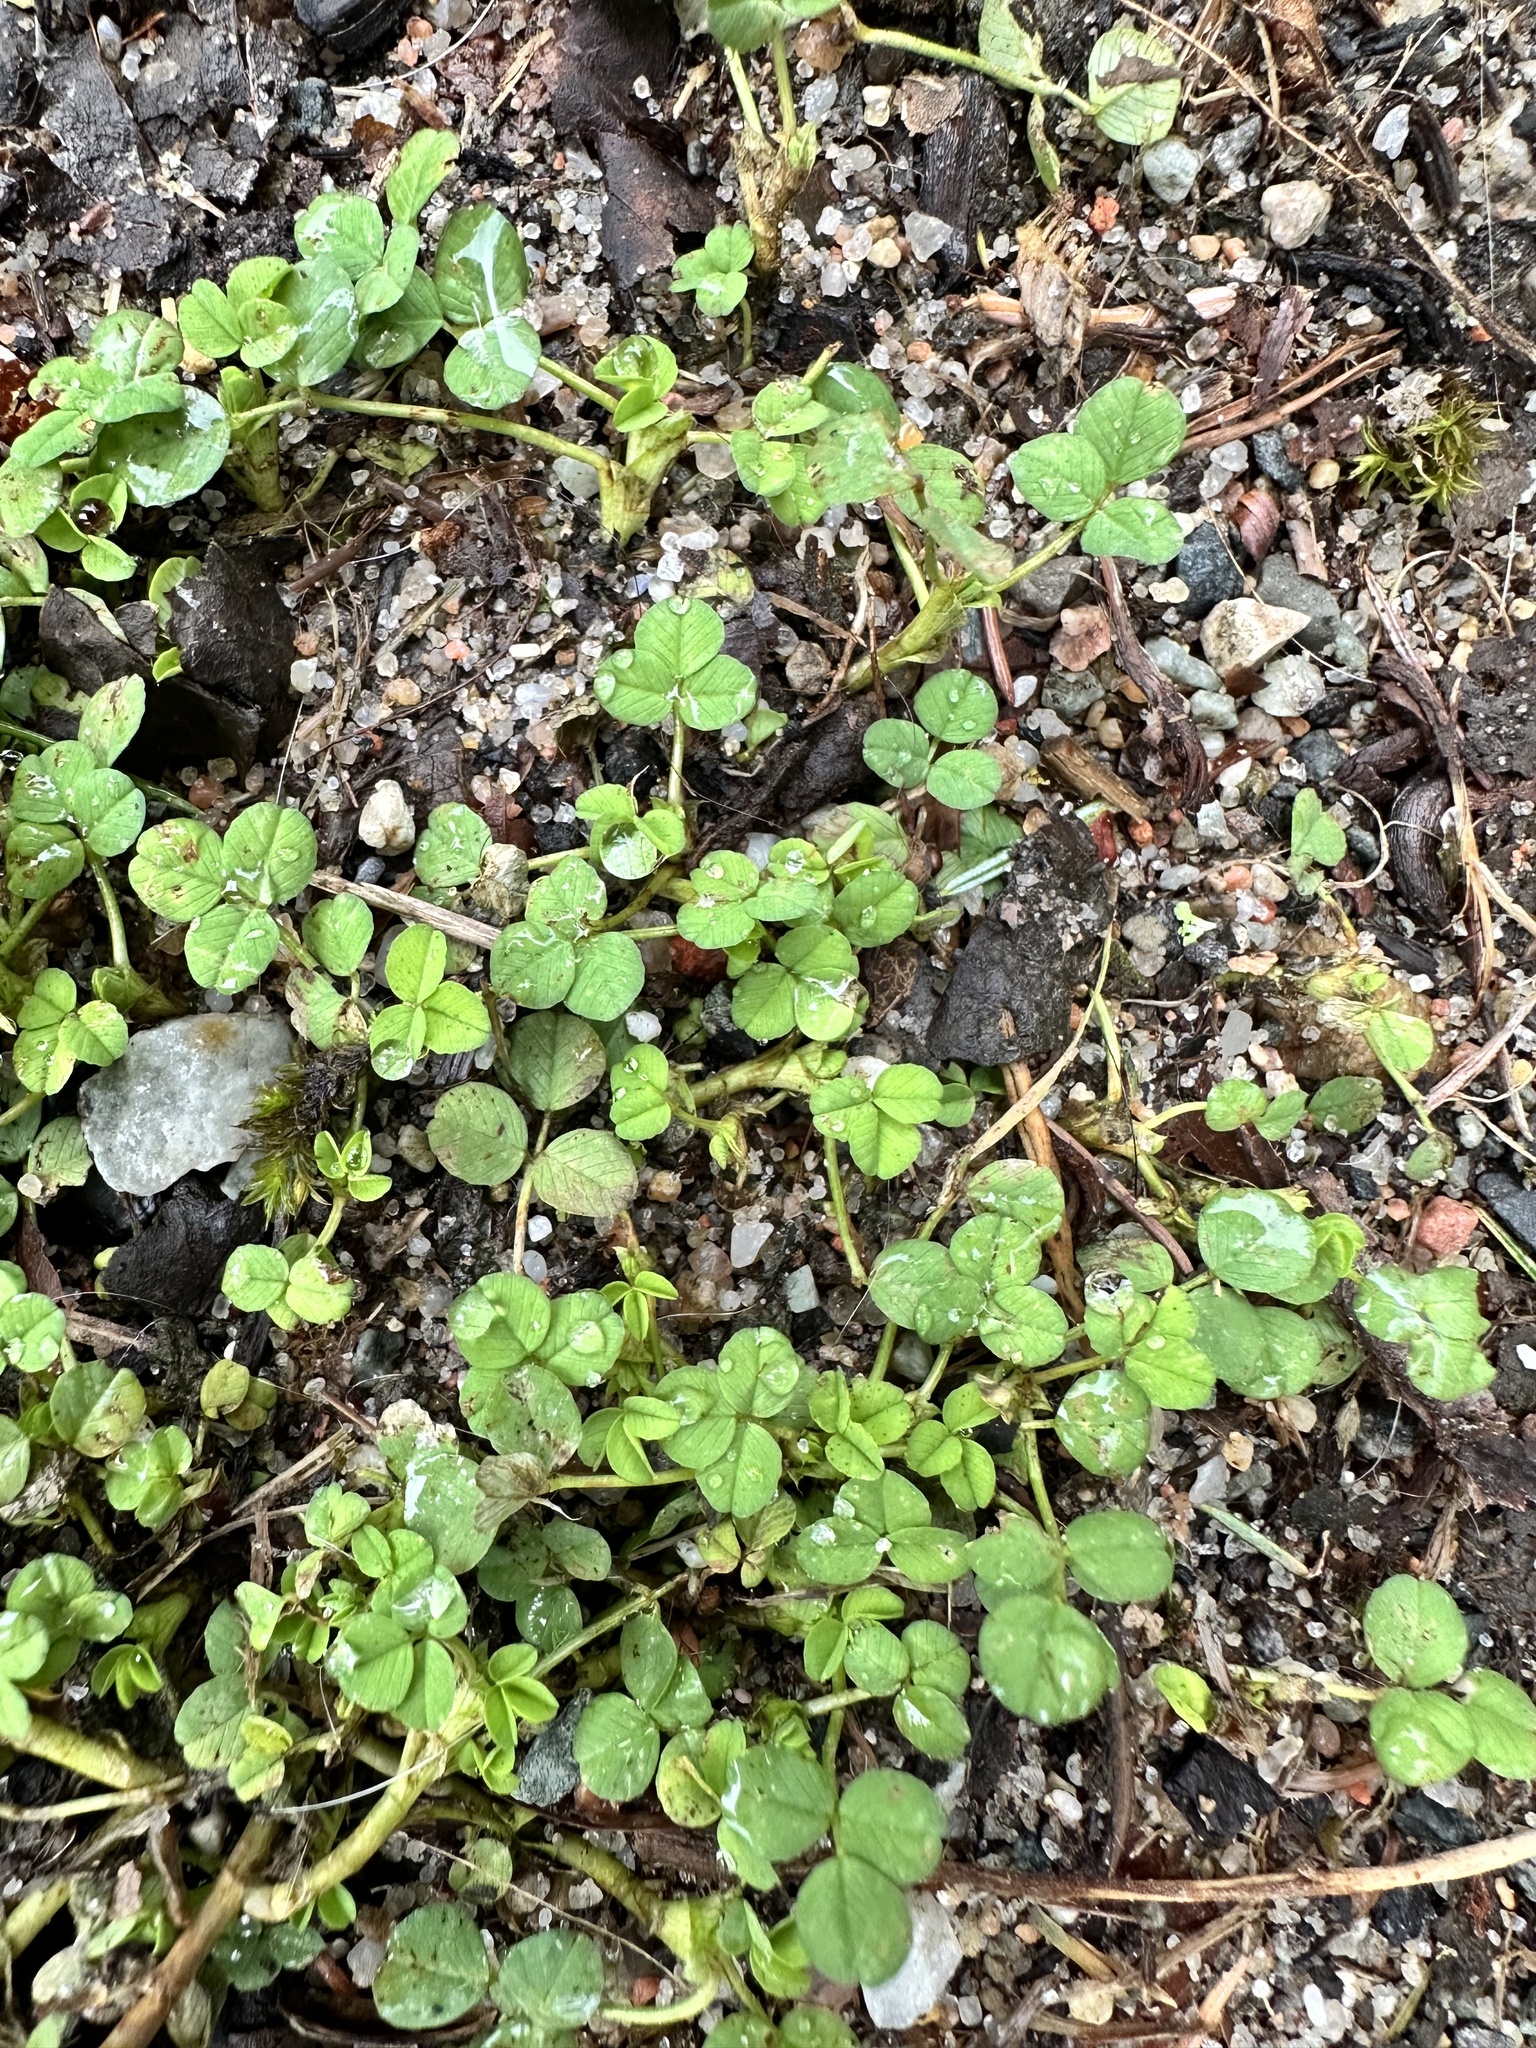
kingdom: Plantae
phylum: Tracheophyta
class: Magnoliopsida
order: Fabales
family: Fabaceae
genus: Trifolium
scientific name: Trifolium repens
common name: White clover
